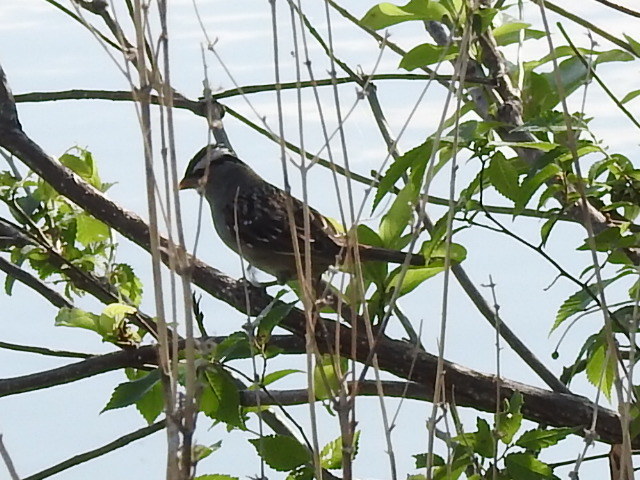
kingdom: Animalia
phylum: Chordata
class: Aves
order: Passeriformes
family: Passerellidae
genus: Zonotrichia
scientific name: Zonotrichia leucophrys
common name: White-crowned sparrow
